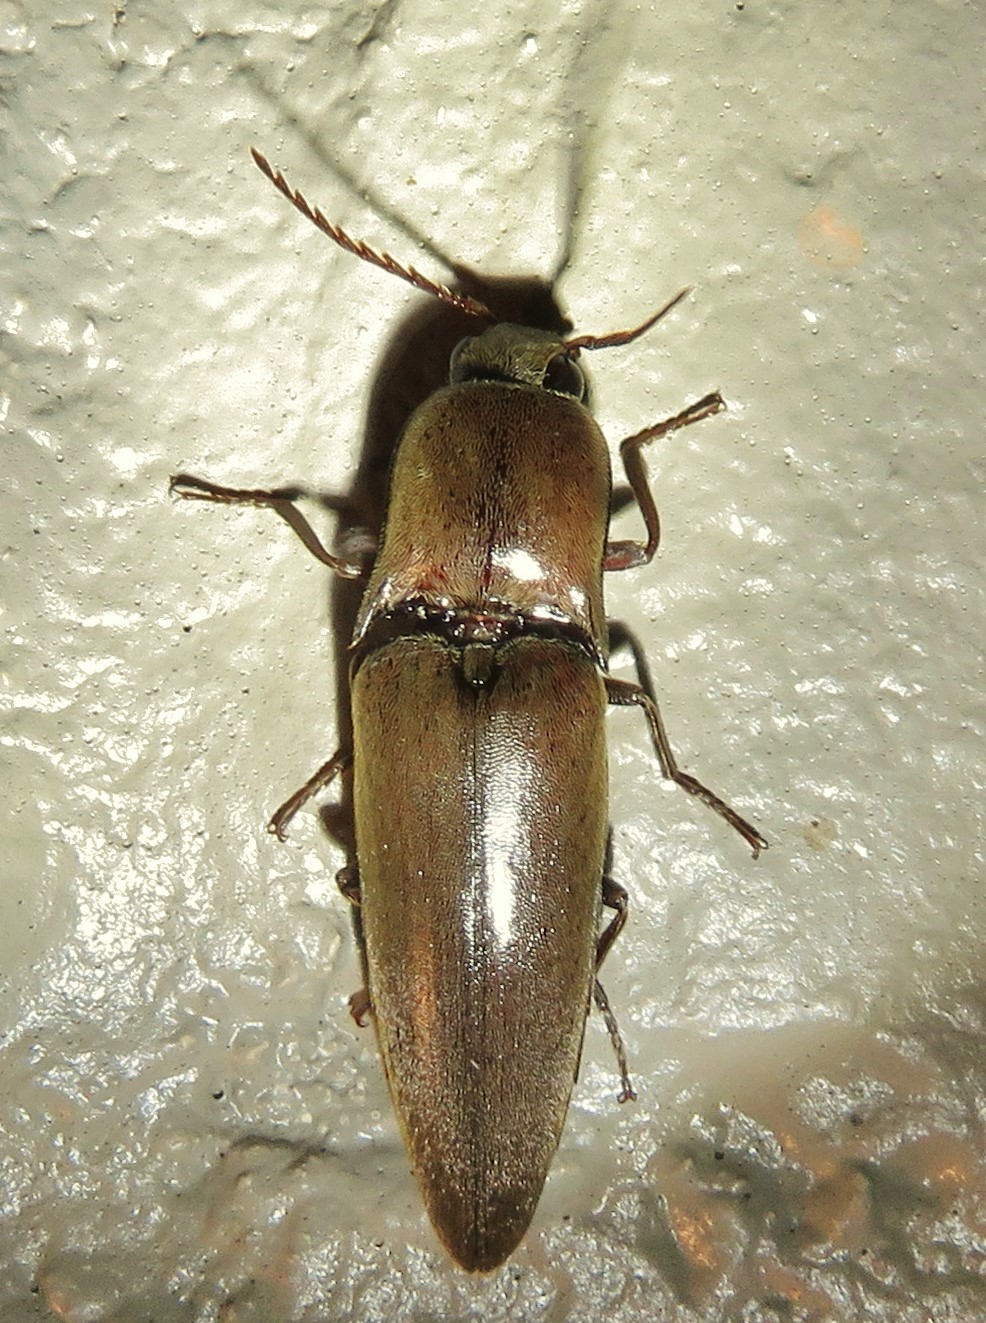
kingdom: Animalia
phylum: Arthropoda
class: Insecta
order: Coleoptera
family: Elateridae
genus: Orthostethus
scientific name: Orthostethus infuscatus
